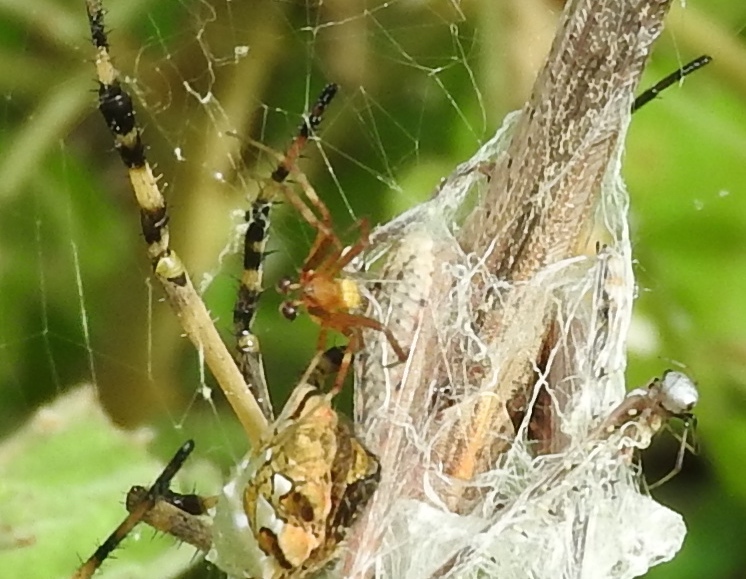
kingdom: Animalia
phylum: Arthropoda
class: Arachnida
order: Araneae
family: Araneidae
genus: Argiope
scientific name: Argiope argentata
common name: Orb weavers
